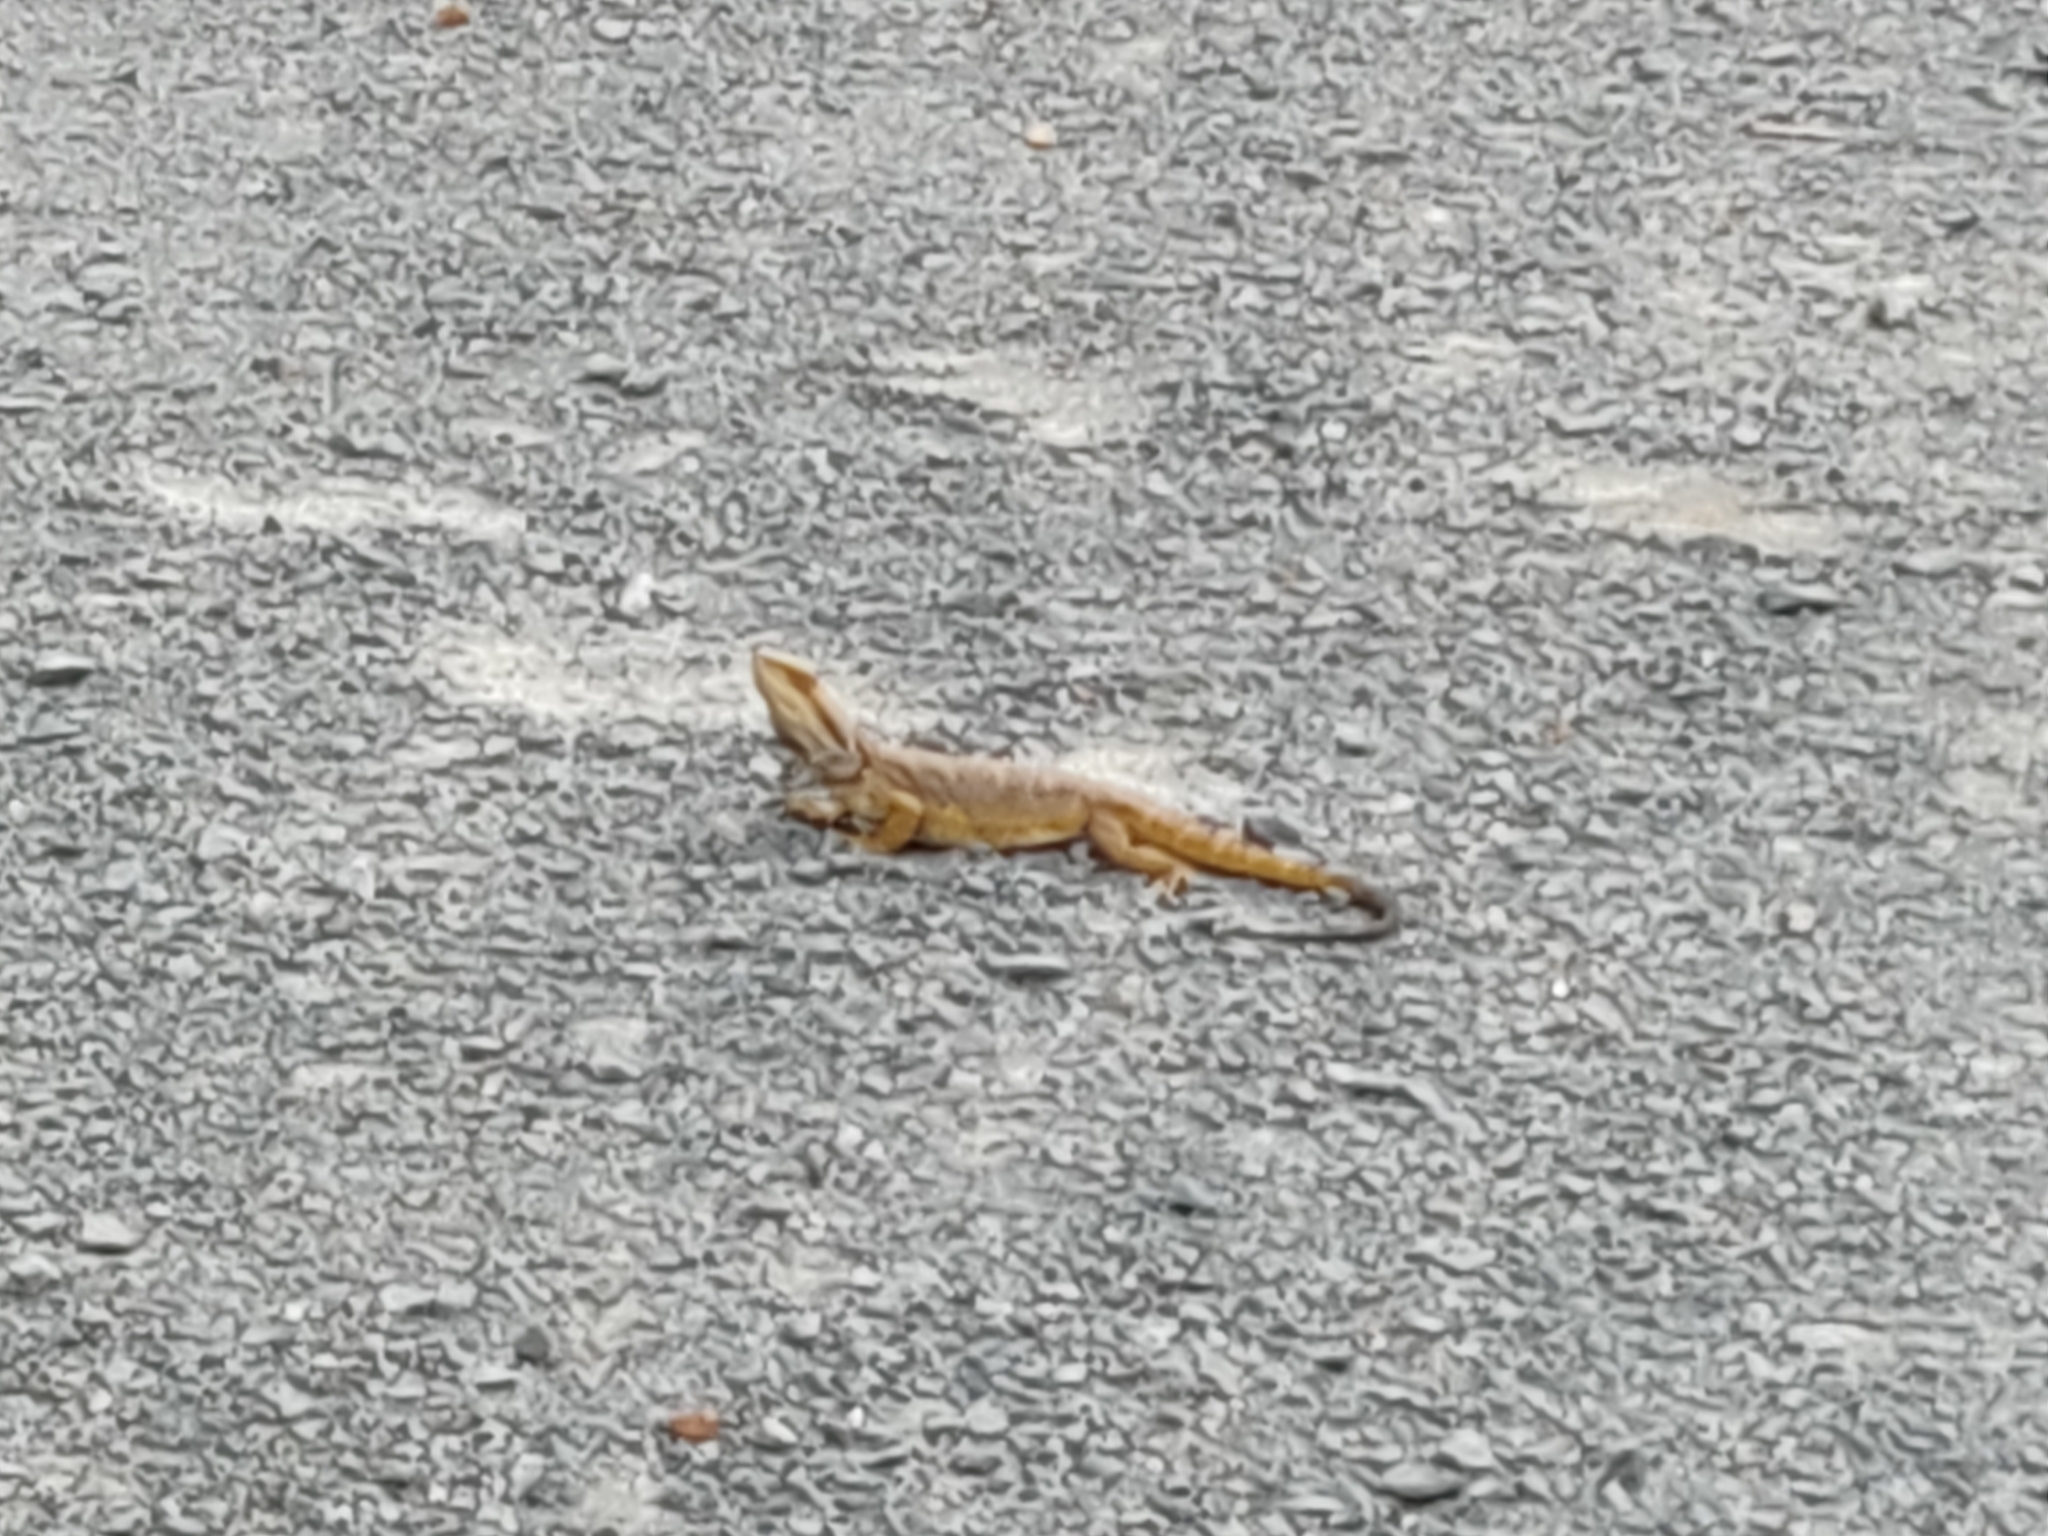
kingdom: Animalia
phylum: Chordata
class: Squamata
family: Agamidae
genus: Pogona
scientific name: Pogona barbata
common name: Bearded dragon
